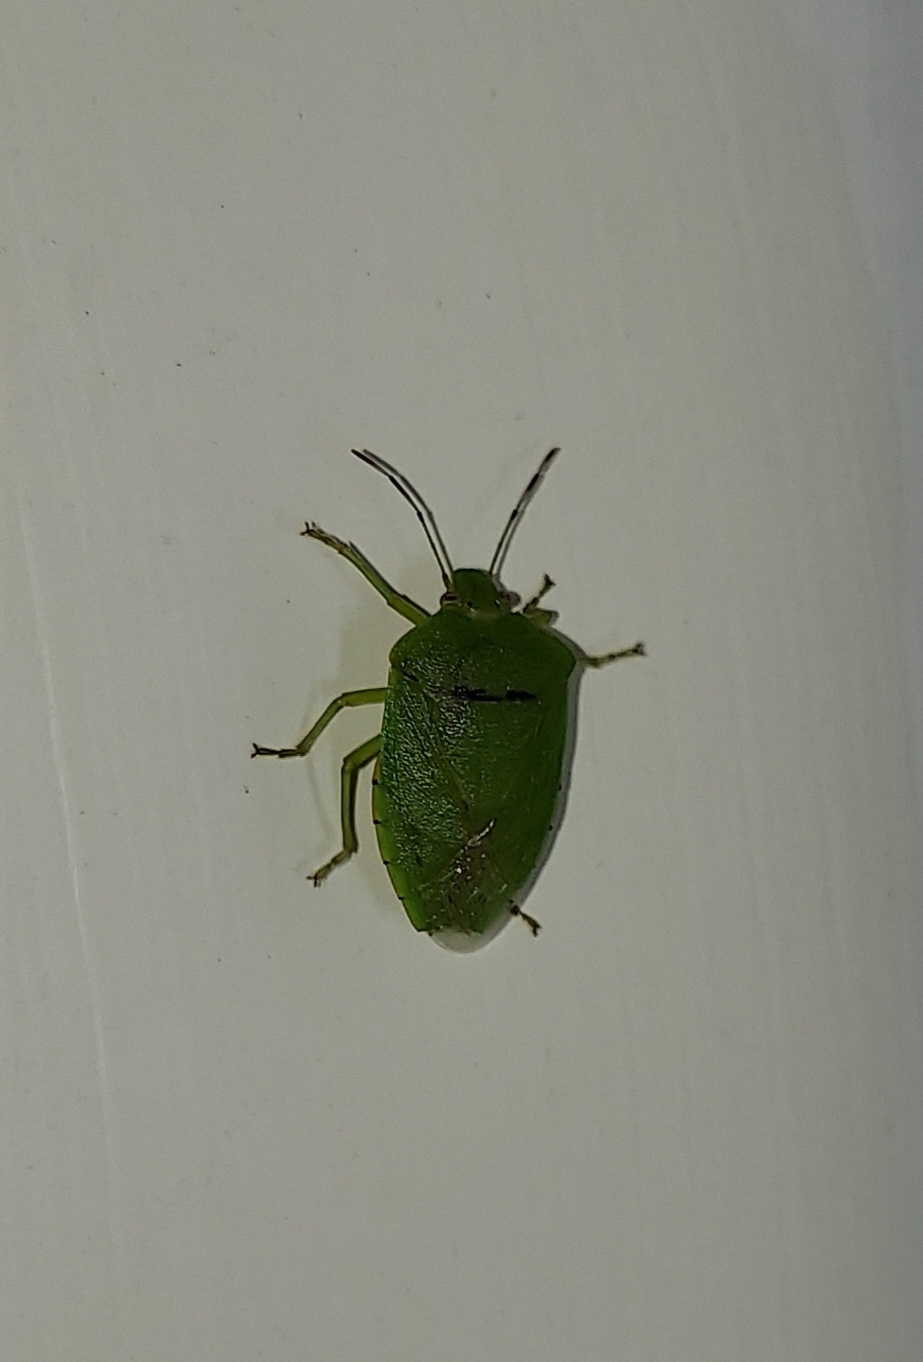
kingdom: Animalia
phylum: Arthropoda
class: Insecta
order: Hemiptera
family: Pentatomidae
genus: Chinavia
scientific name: Chinavia hilaris
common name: Green stink bug
